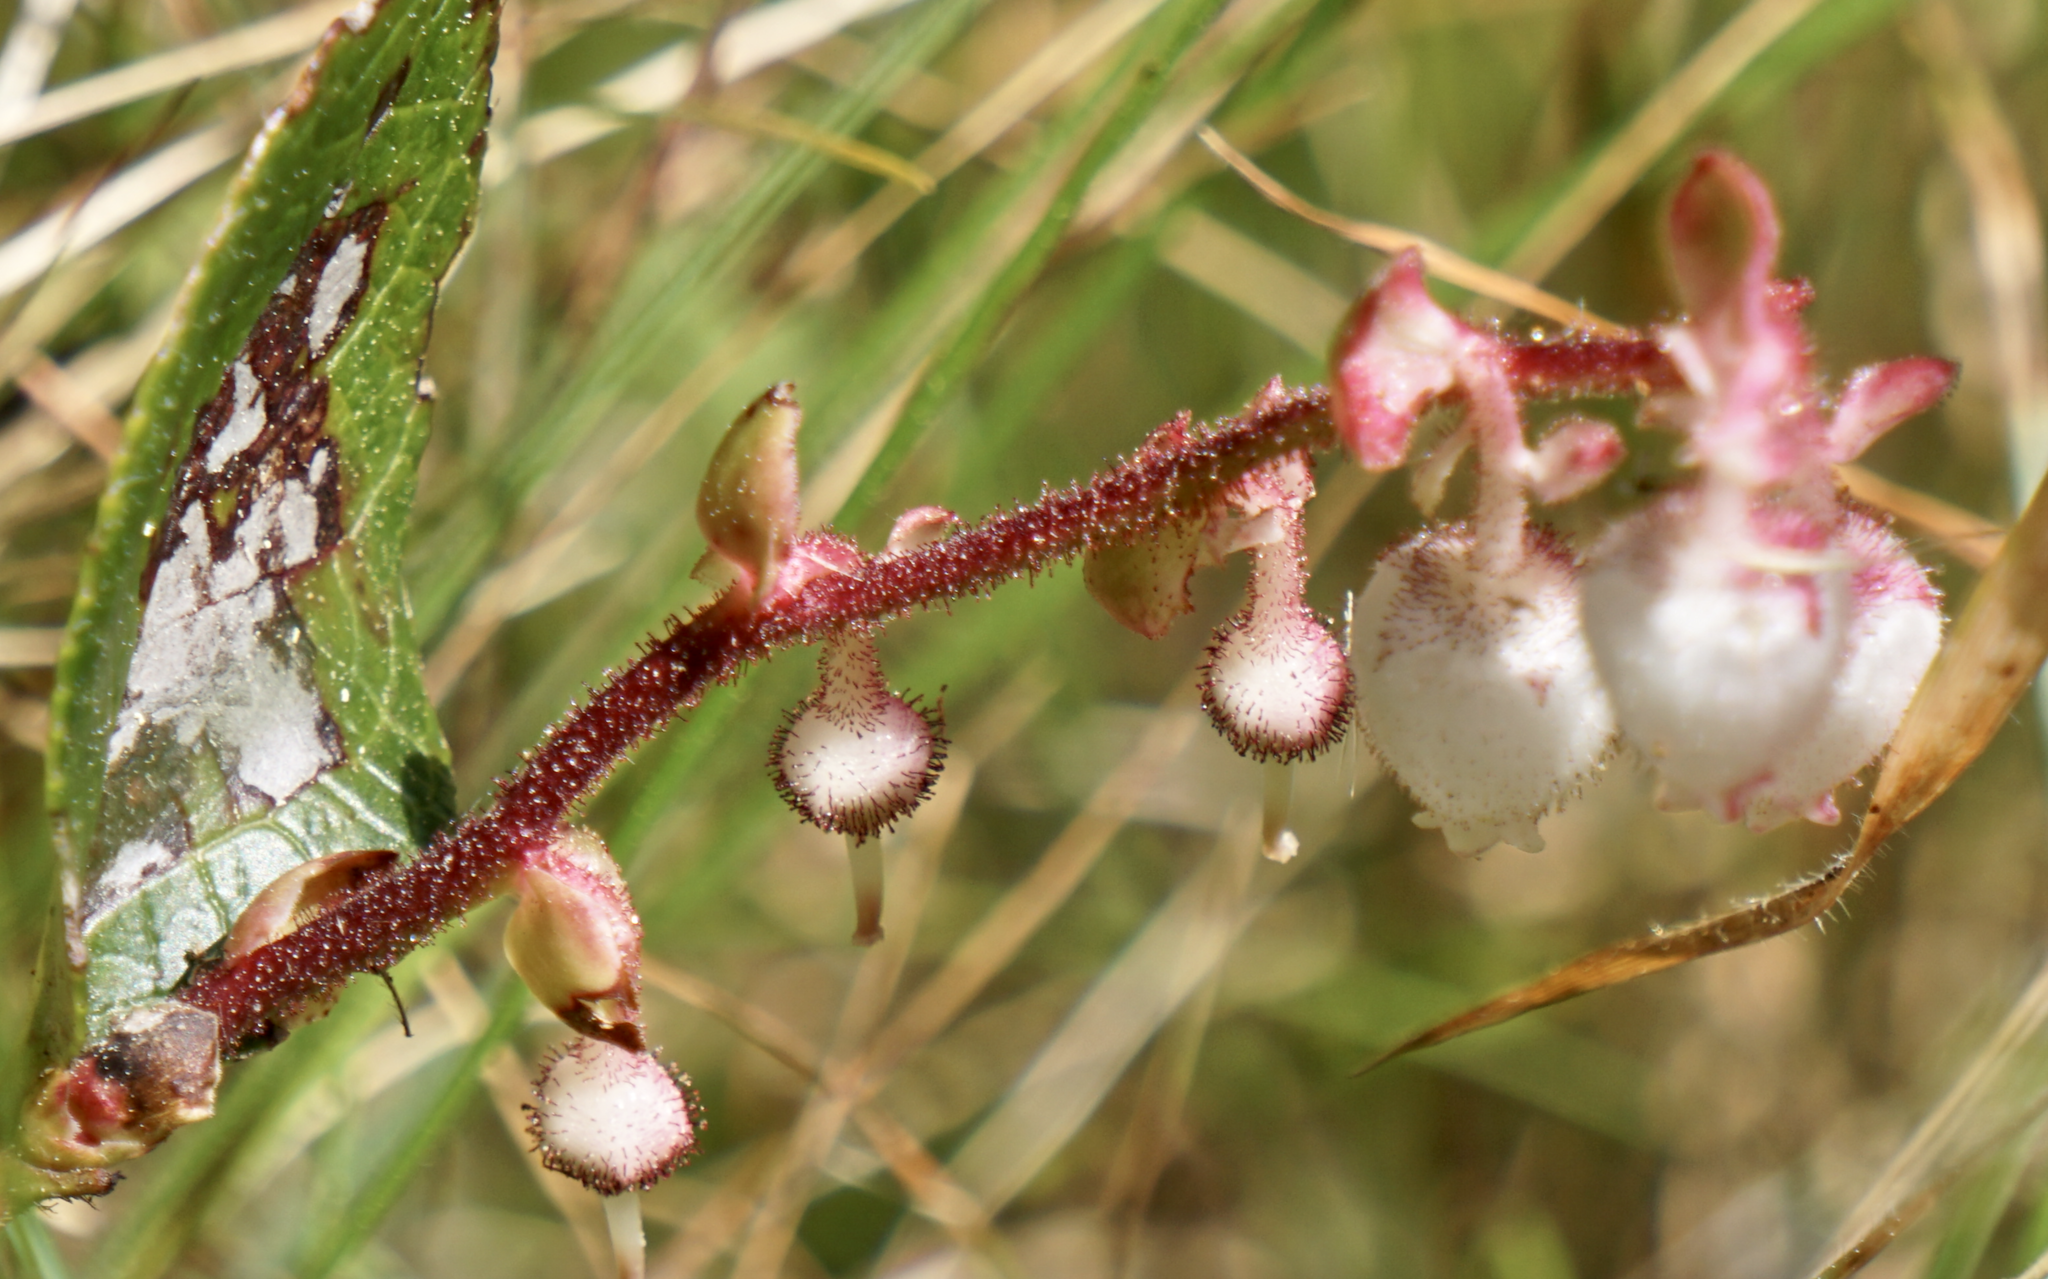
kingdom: Plantae
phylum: Tracheophyta
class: Magnoliopsida
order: Ericales
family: Ericaceae
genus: Gaultheria
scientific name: Gaultheria shallon
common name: Shallon
